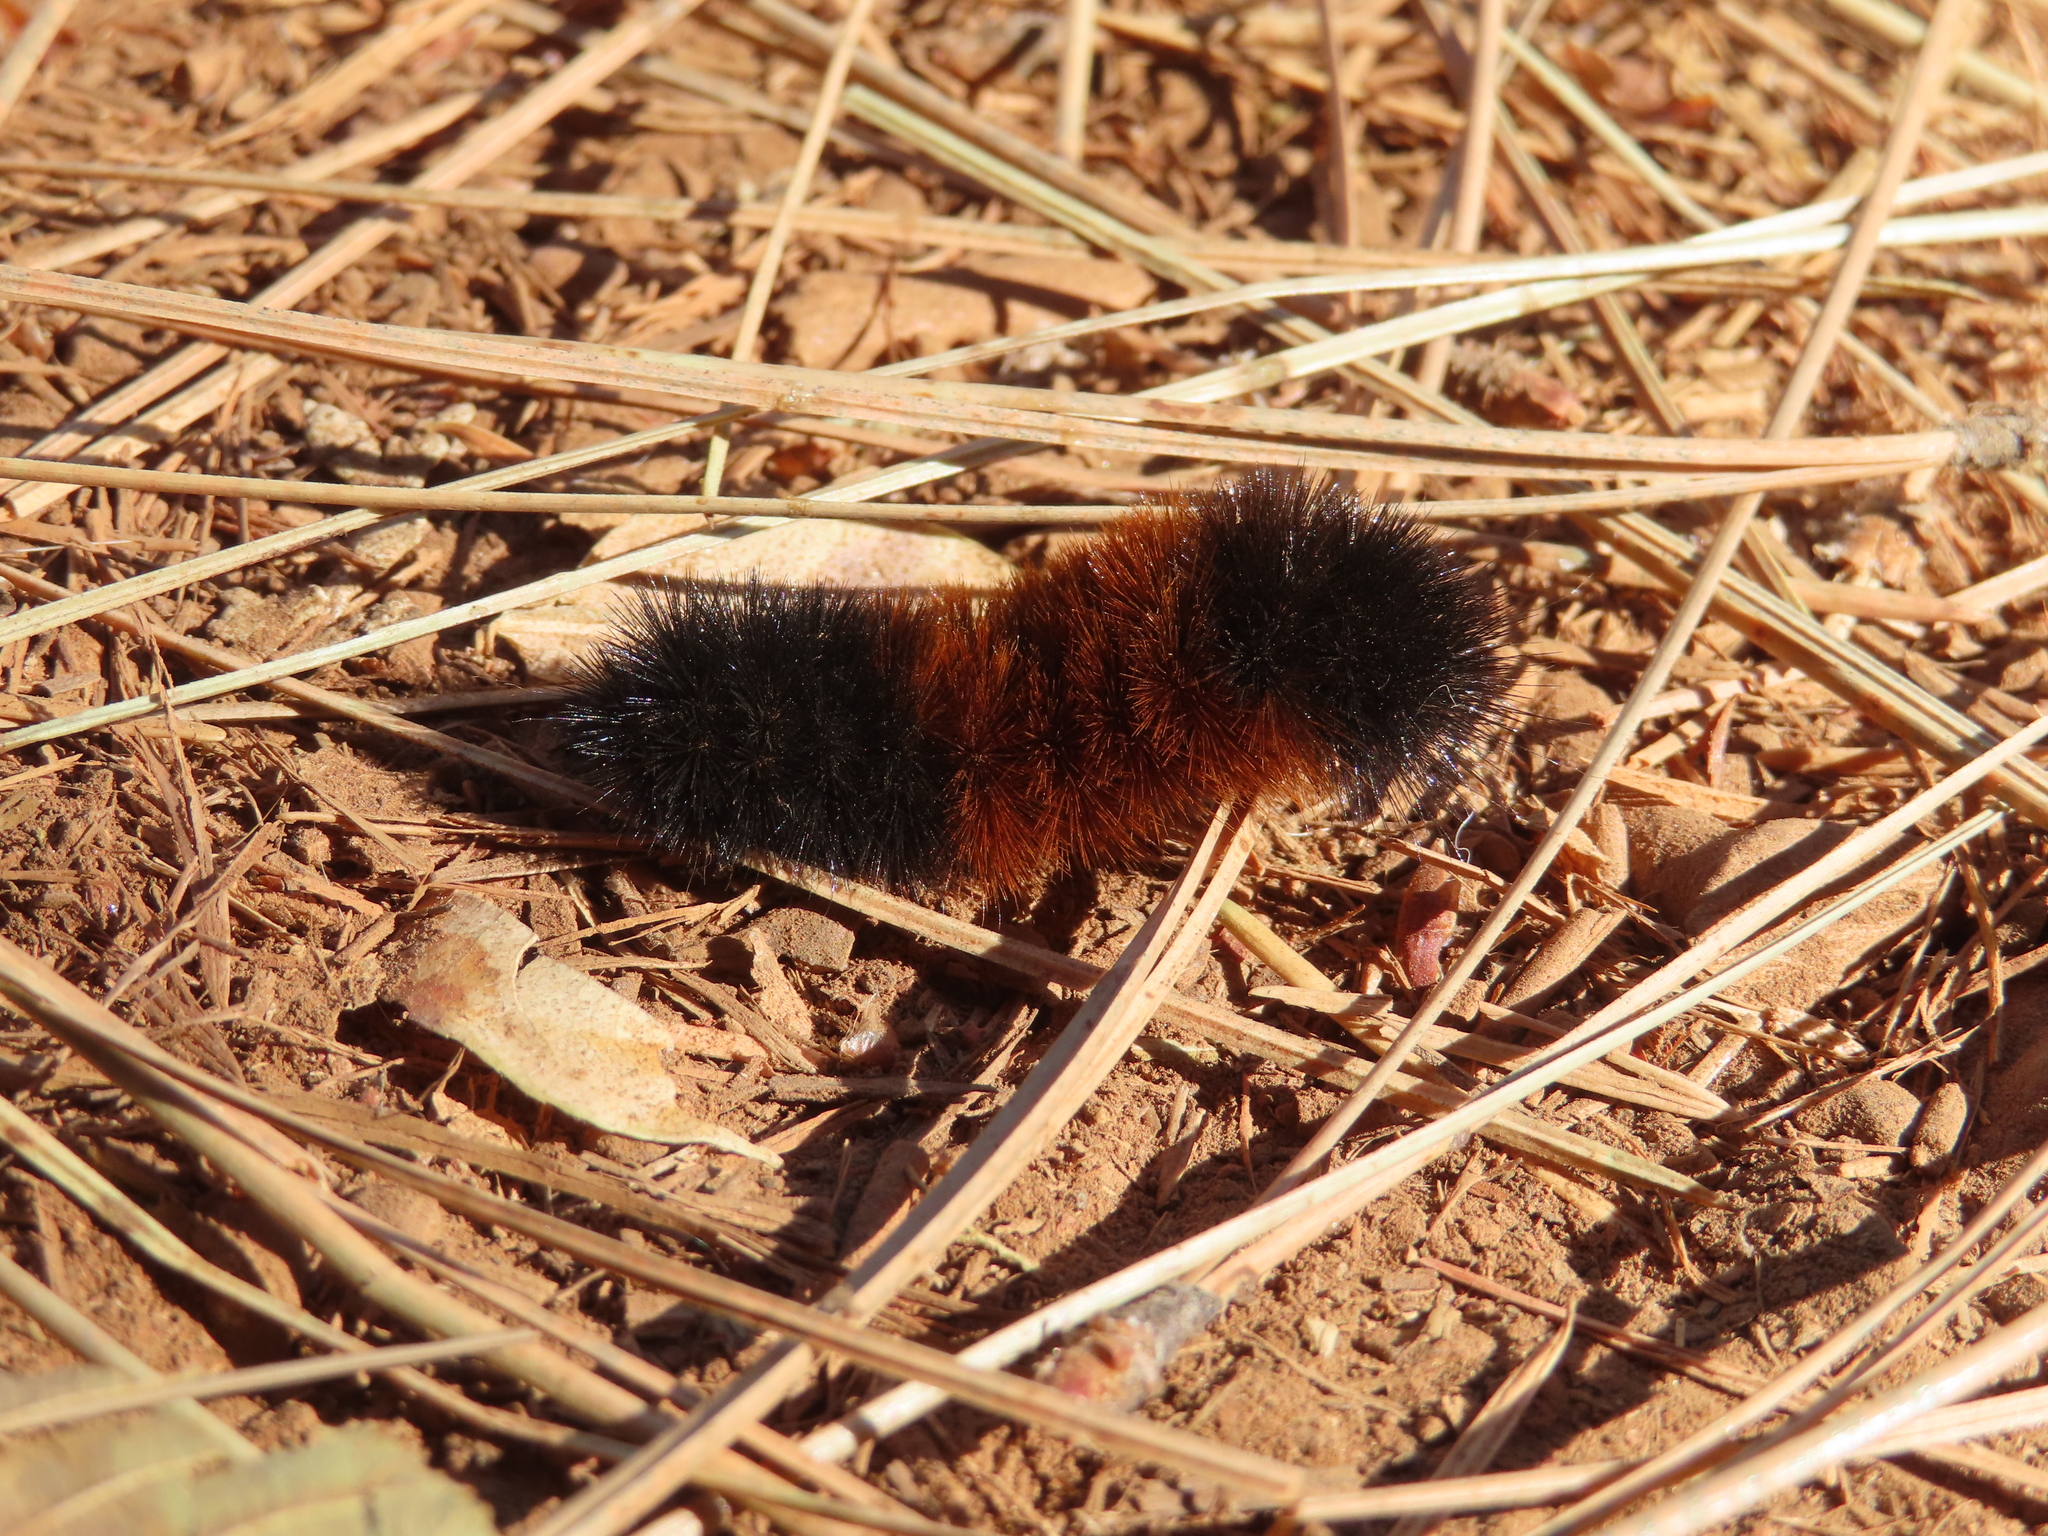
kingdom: Animalia
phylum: Arthropoda
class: Insecta
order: Lepidoptera
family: Erebidae
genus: Pyrrharctia
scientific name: Pyrrharctia isabella
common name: Isabella tiger moth
